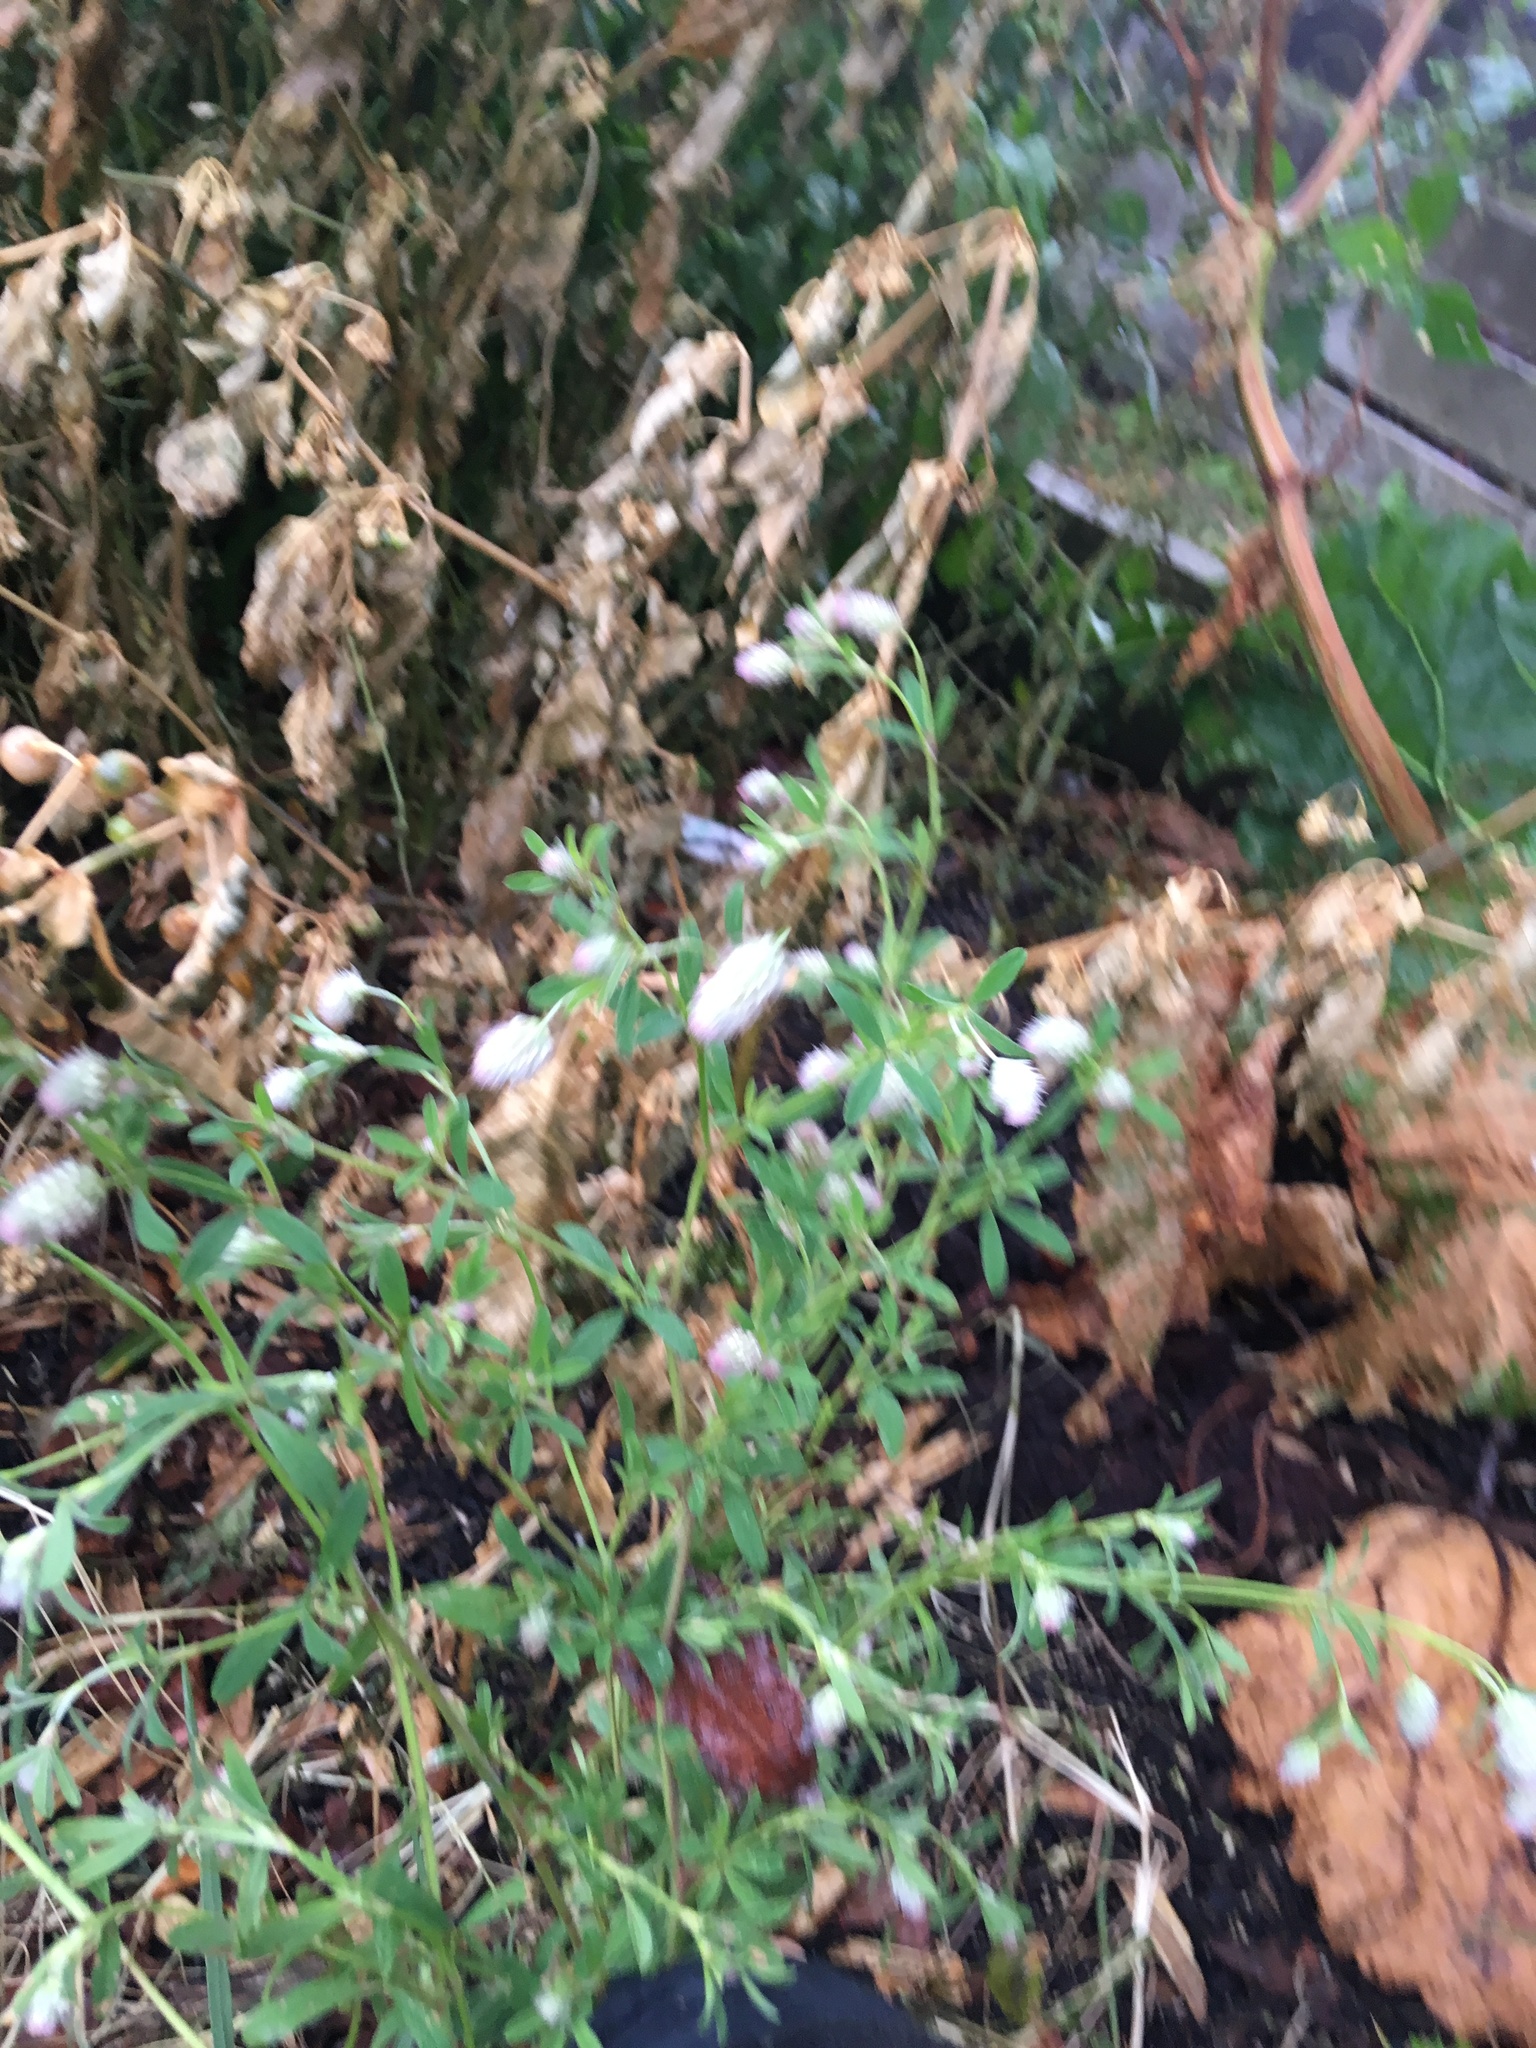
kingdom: Plantae
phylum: Tracheophyta
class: Magnoliopsida
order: Fabales
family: Fabaceae
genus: Trifolium
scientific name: Trifolium arvense
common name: Hare's-foot clover
